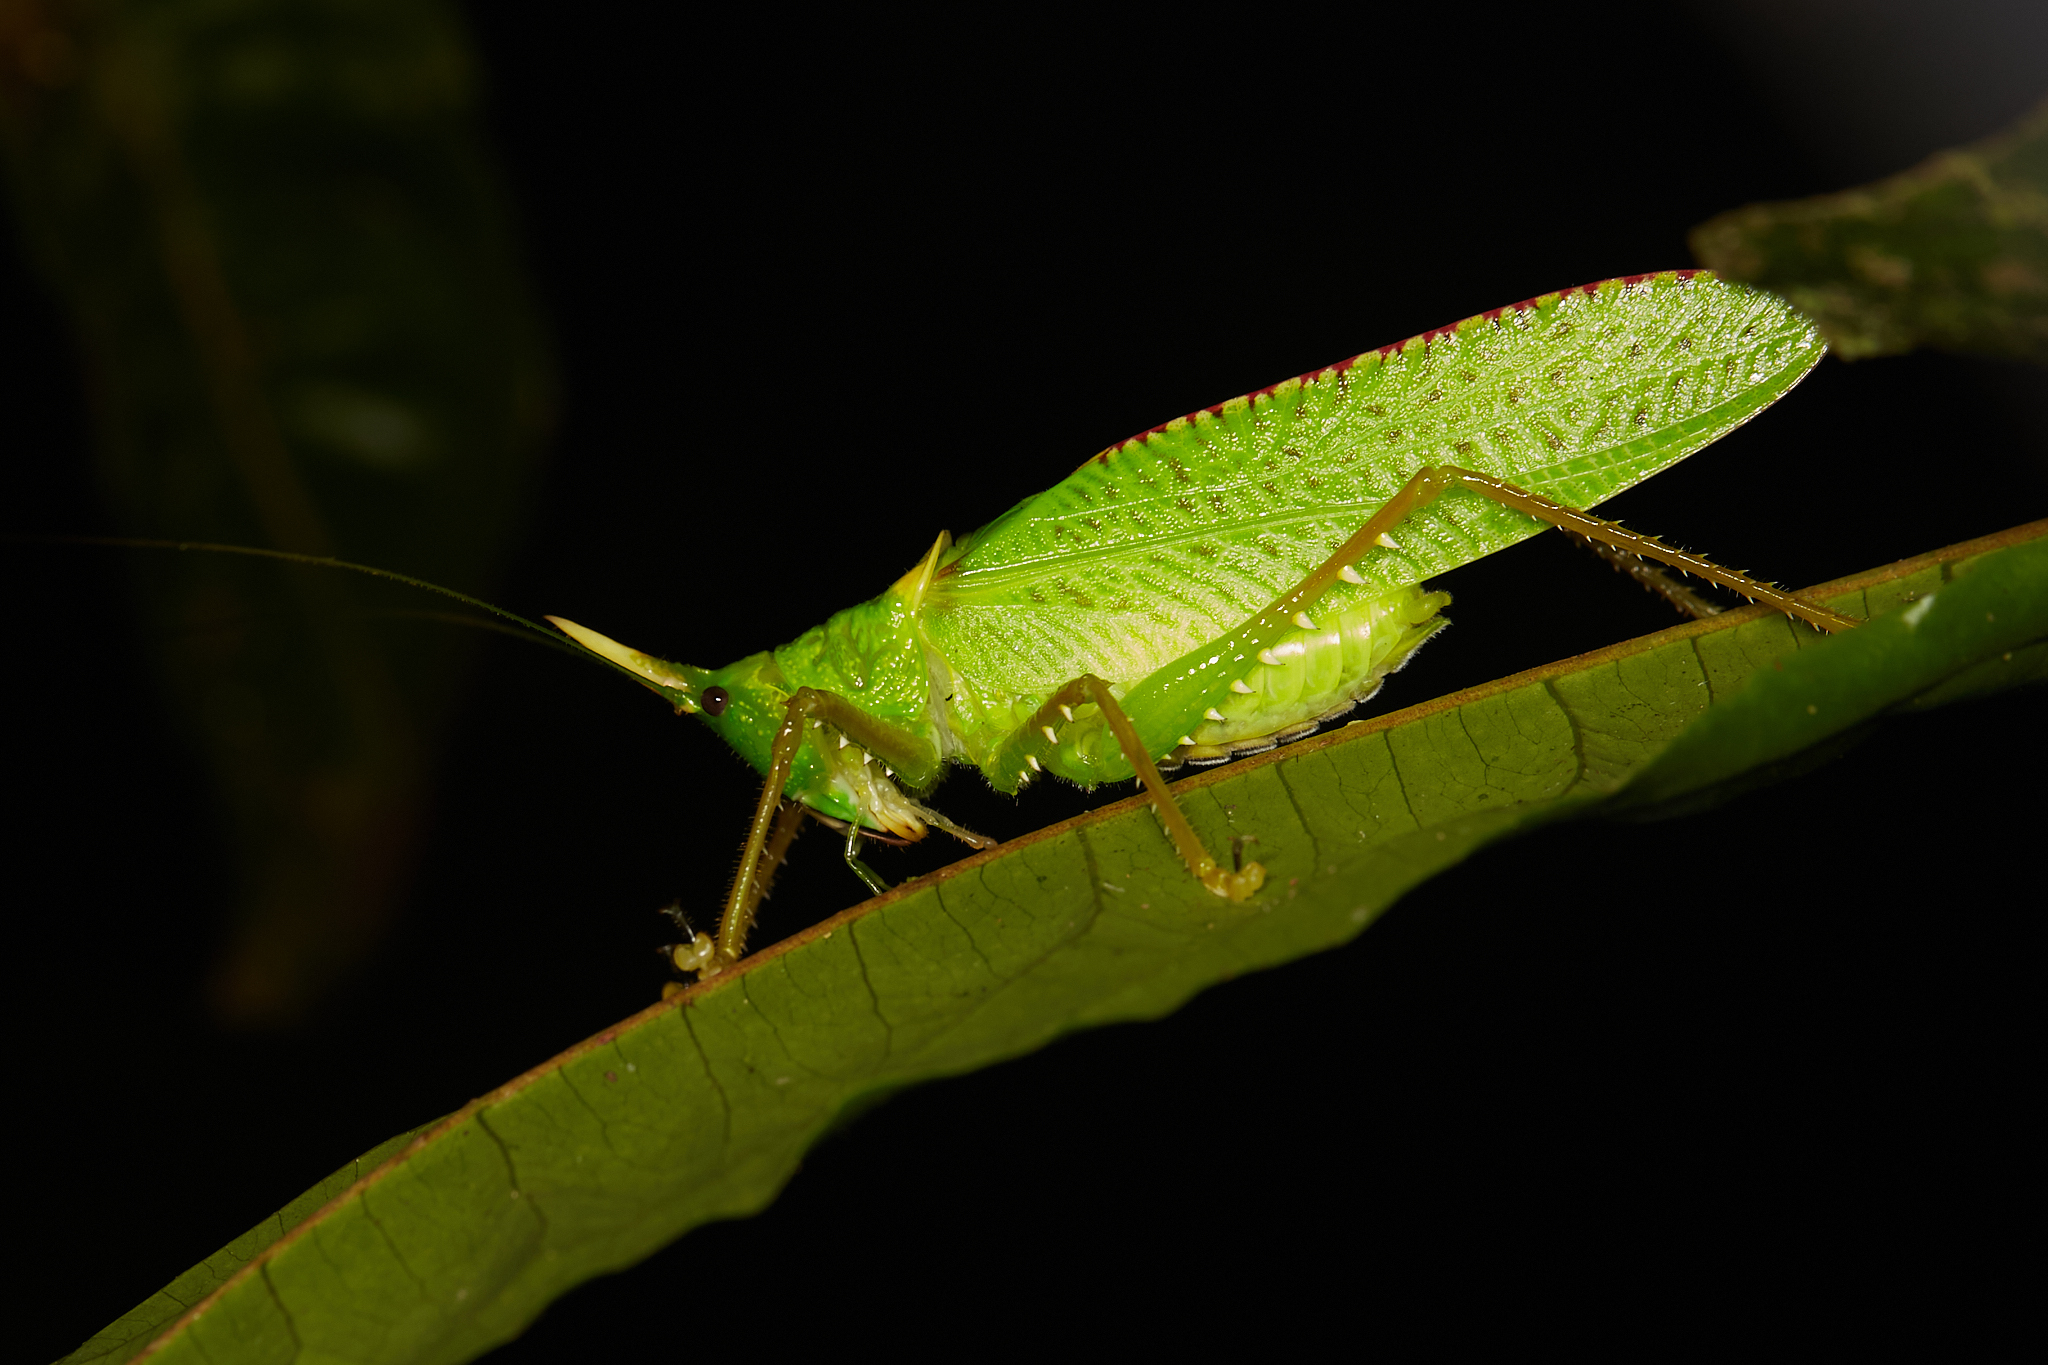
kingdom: Animalia
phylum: Arthropoda
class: Insecta
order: Orthoptera
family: Tettigoniidae
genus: Copiphora
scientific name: Copiphora rhinoceros
